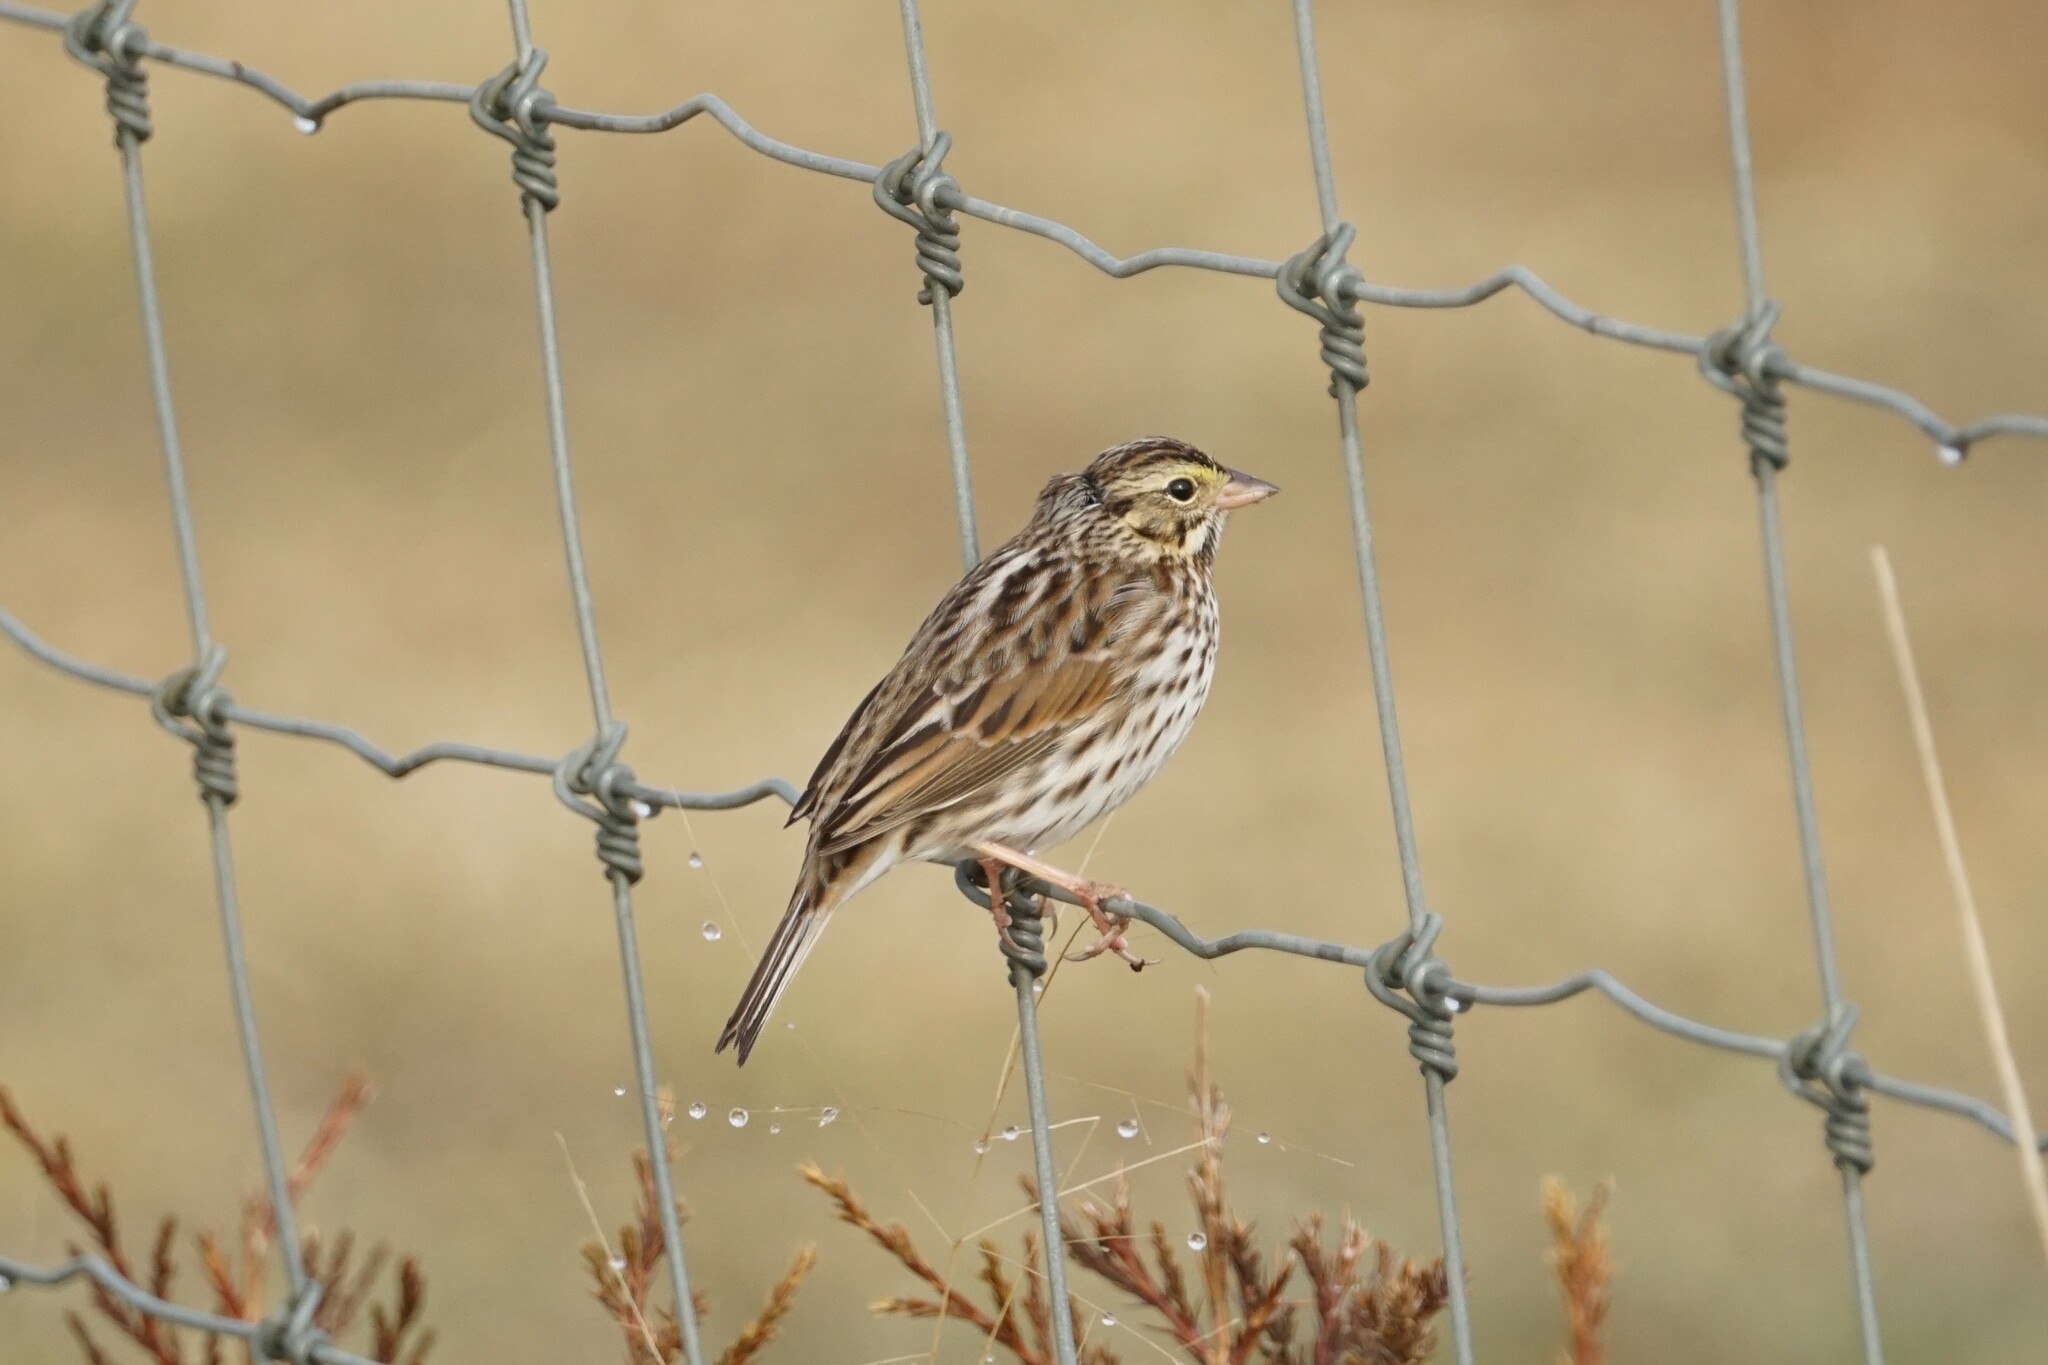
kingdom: Animalia
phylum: Chordata
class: Aves
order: Passeriformes
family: Passerellidae
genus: Passerculus
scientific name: Passerculus sandwichensis
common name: Savannah sparrow
